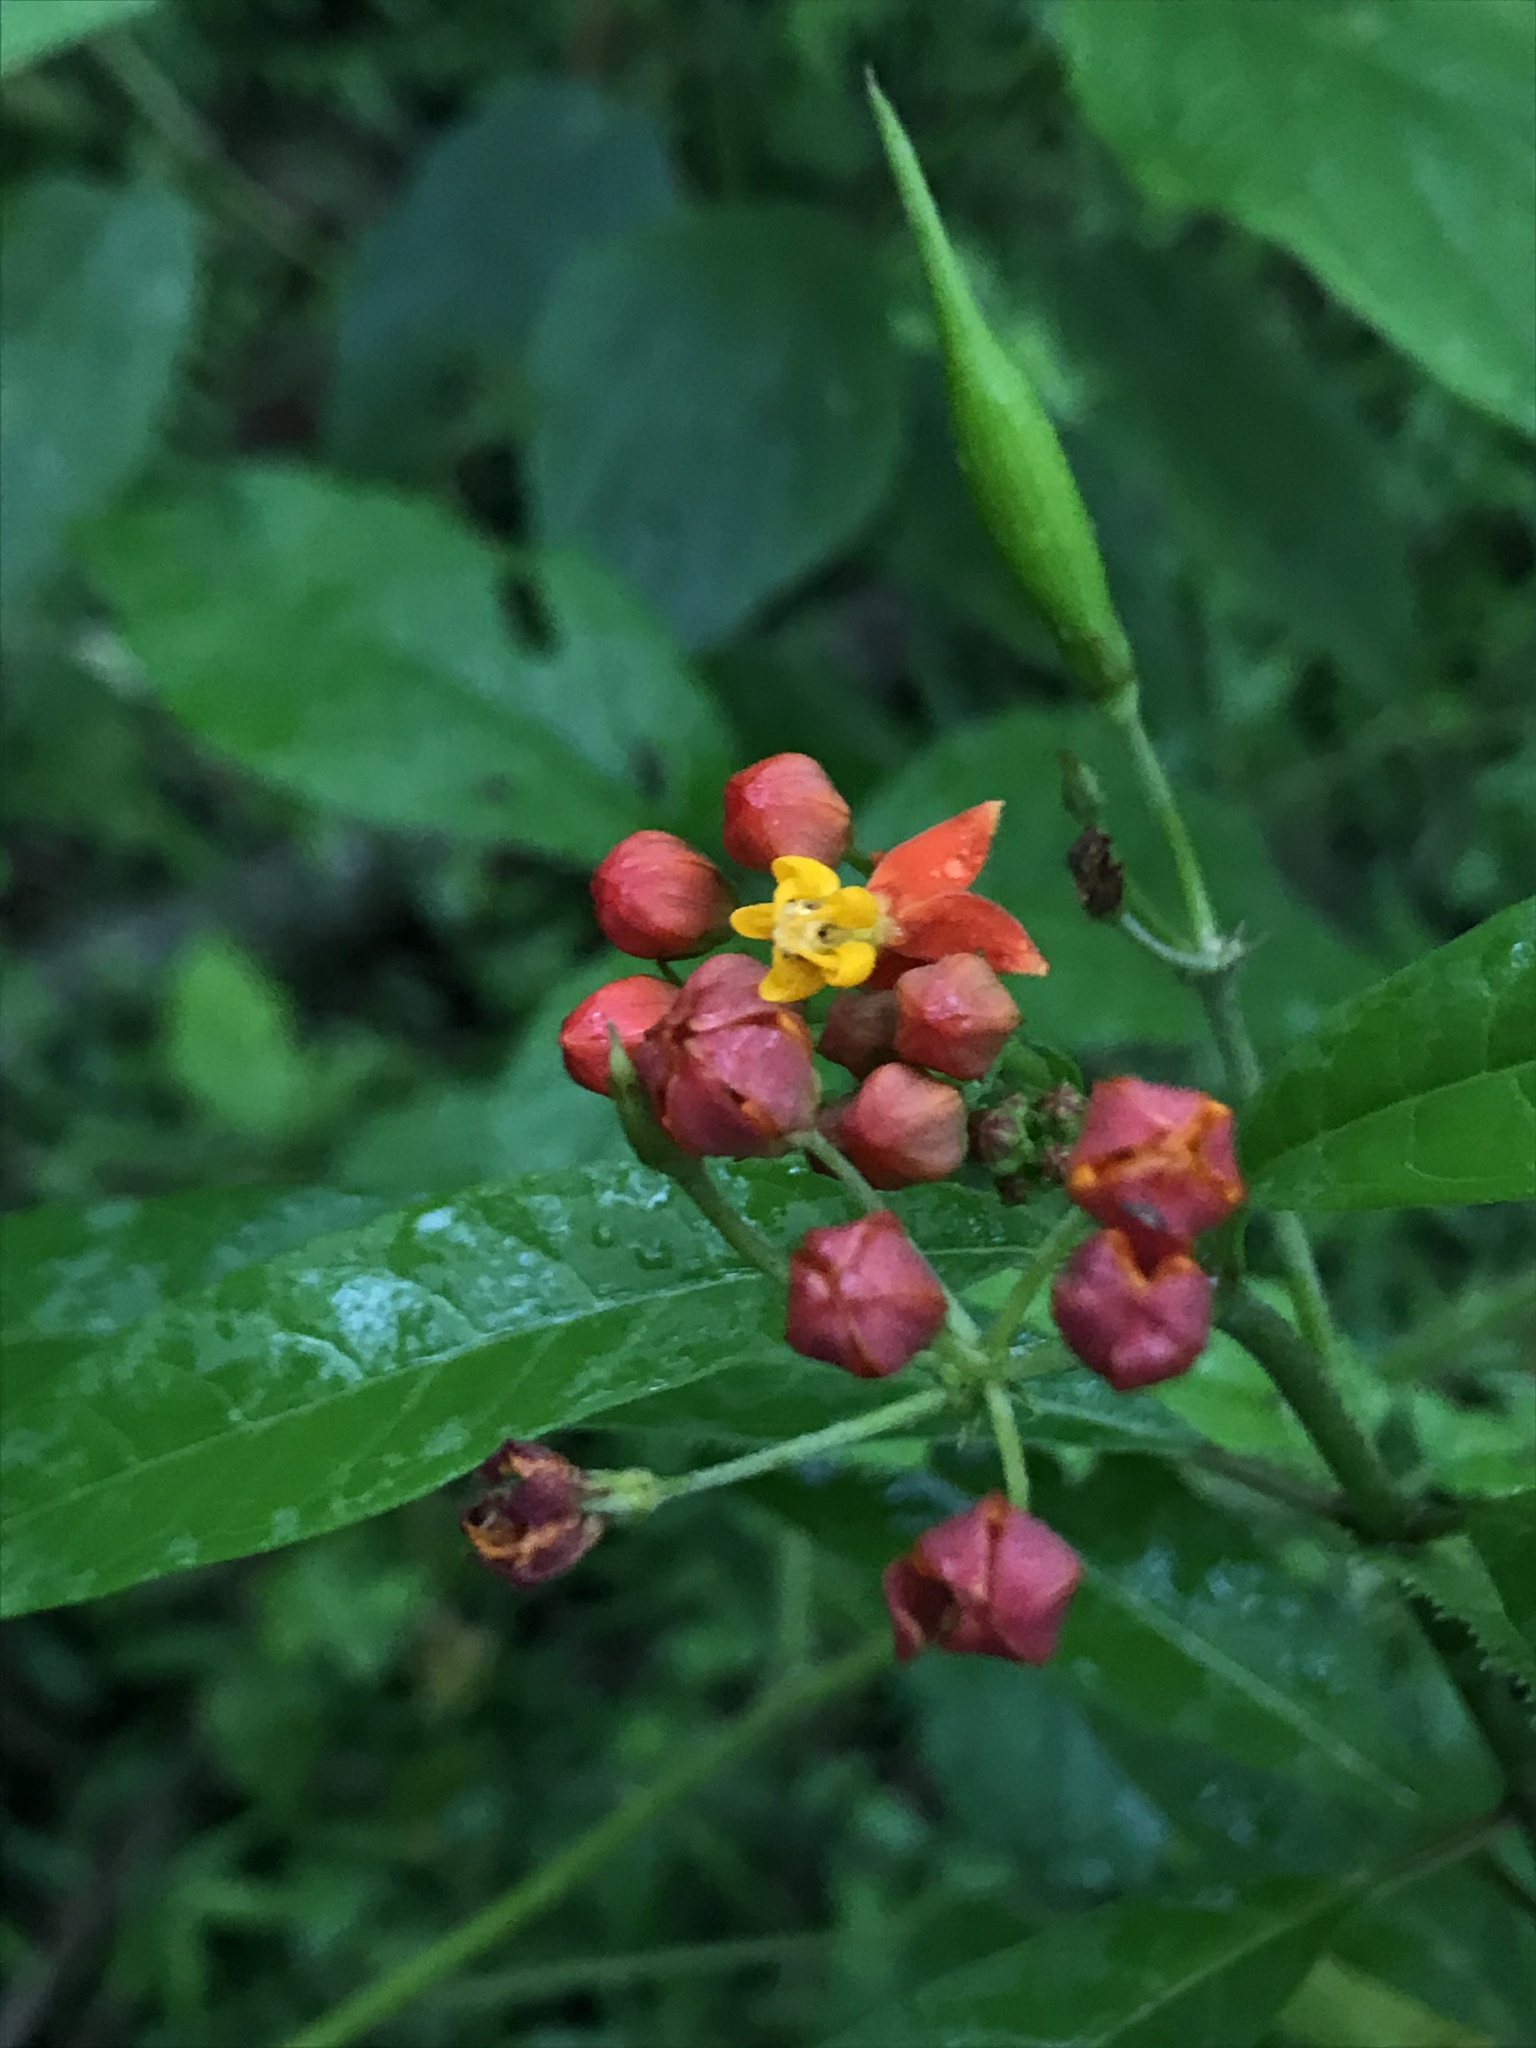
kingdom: Plantae
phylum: Tracheophyta
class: Magnoliopsida
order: Gentianales
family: Apocynaceae
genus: Asclepias
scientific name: Asclepias curassavica
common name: Bloodflower
